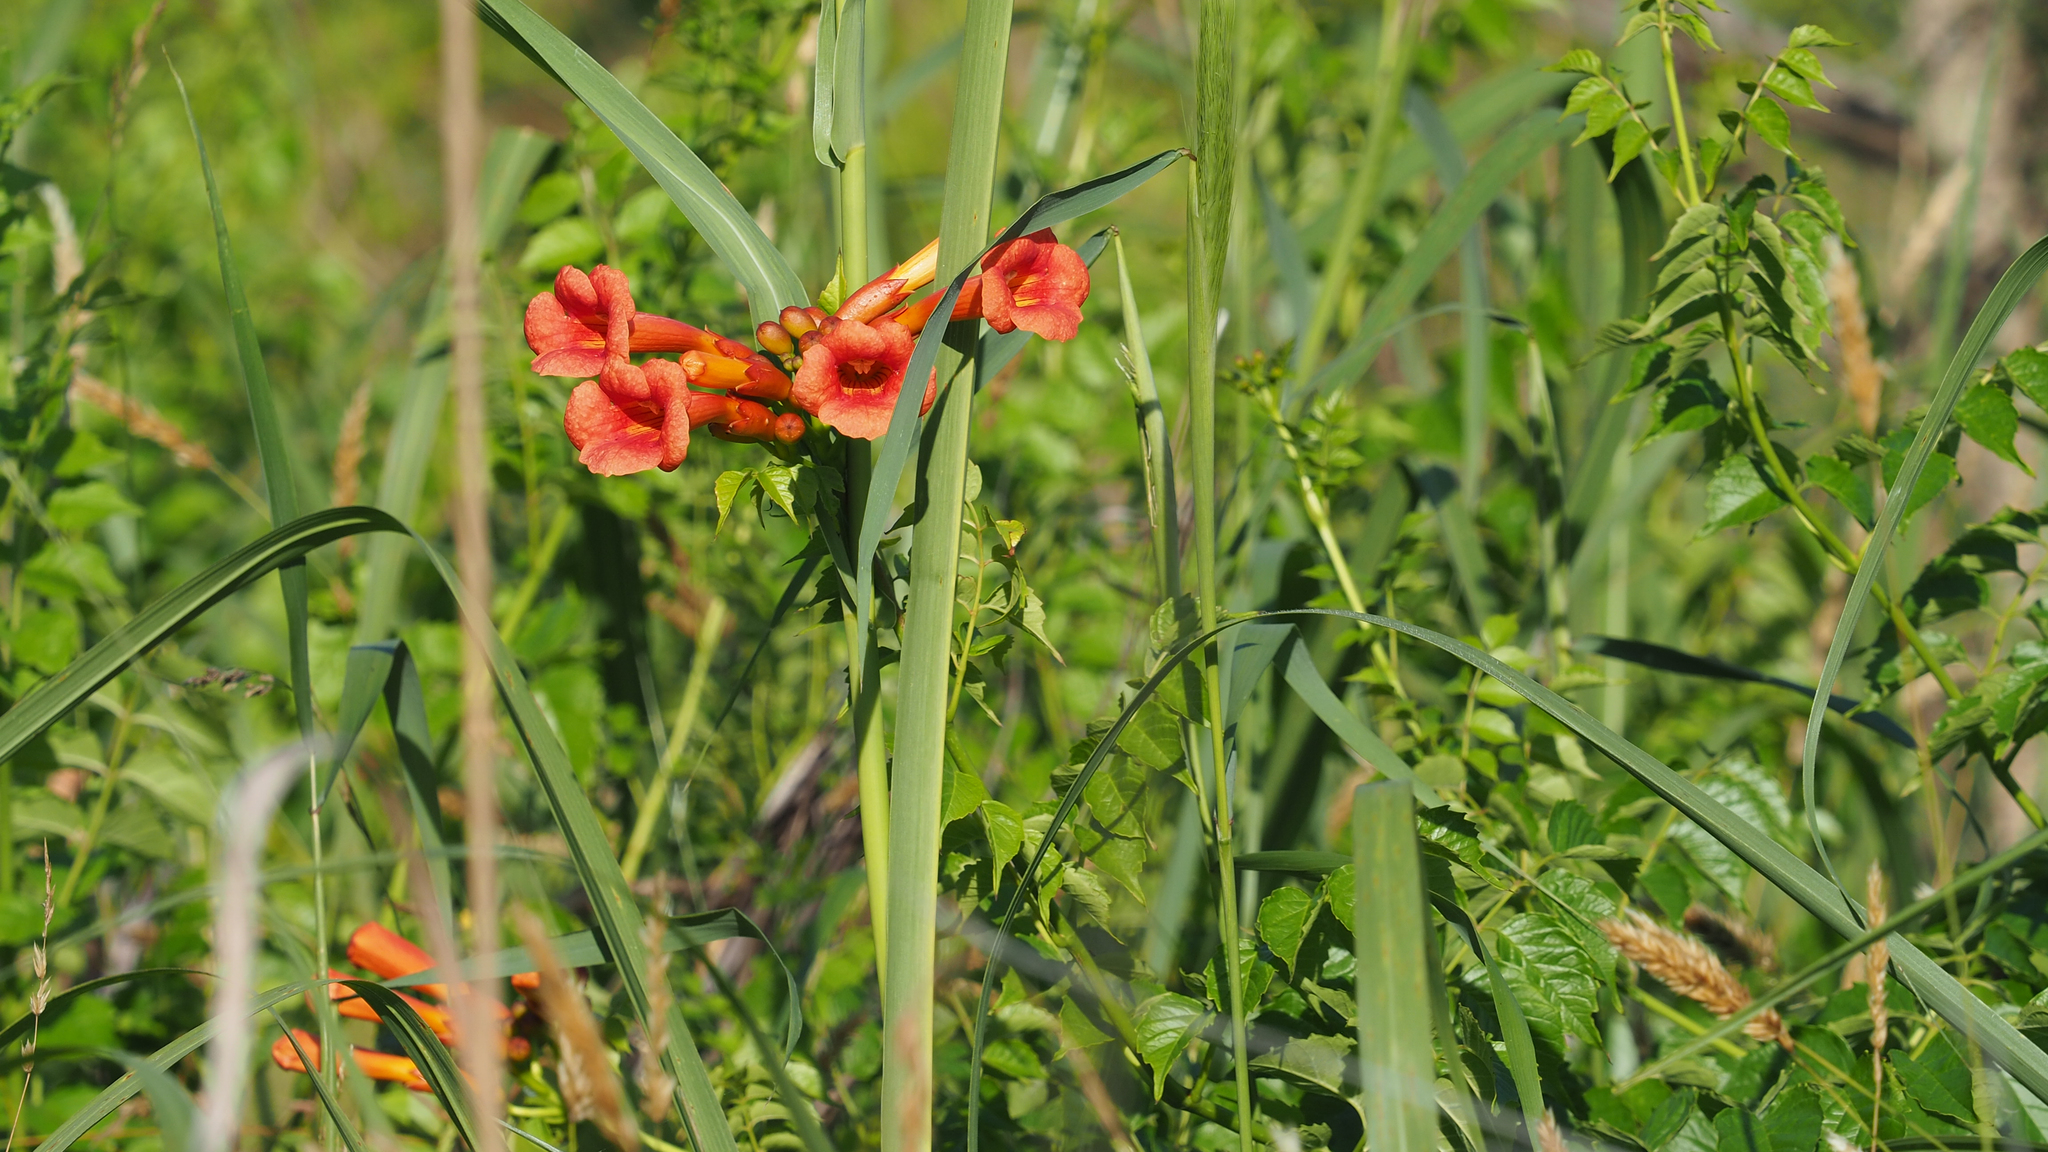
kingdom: Plantae
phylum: Tracheophyta
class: Magnoliopsida
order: Lamiales
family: Bignoniaceae
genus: Campsis
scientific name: Campsis radicans
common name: Trumpet-creeper
